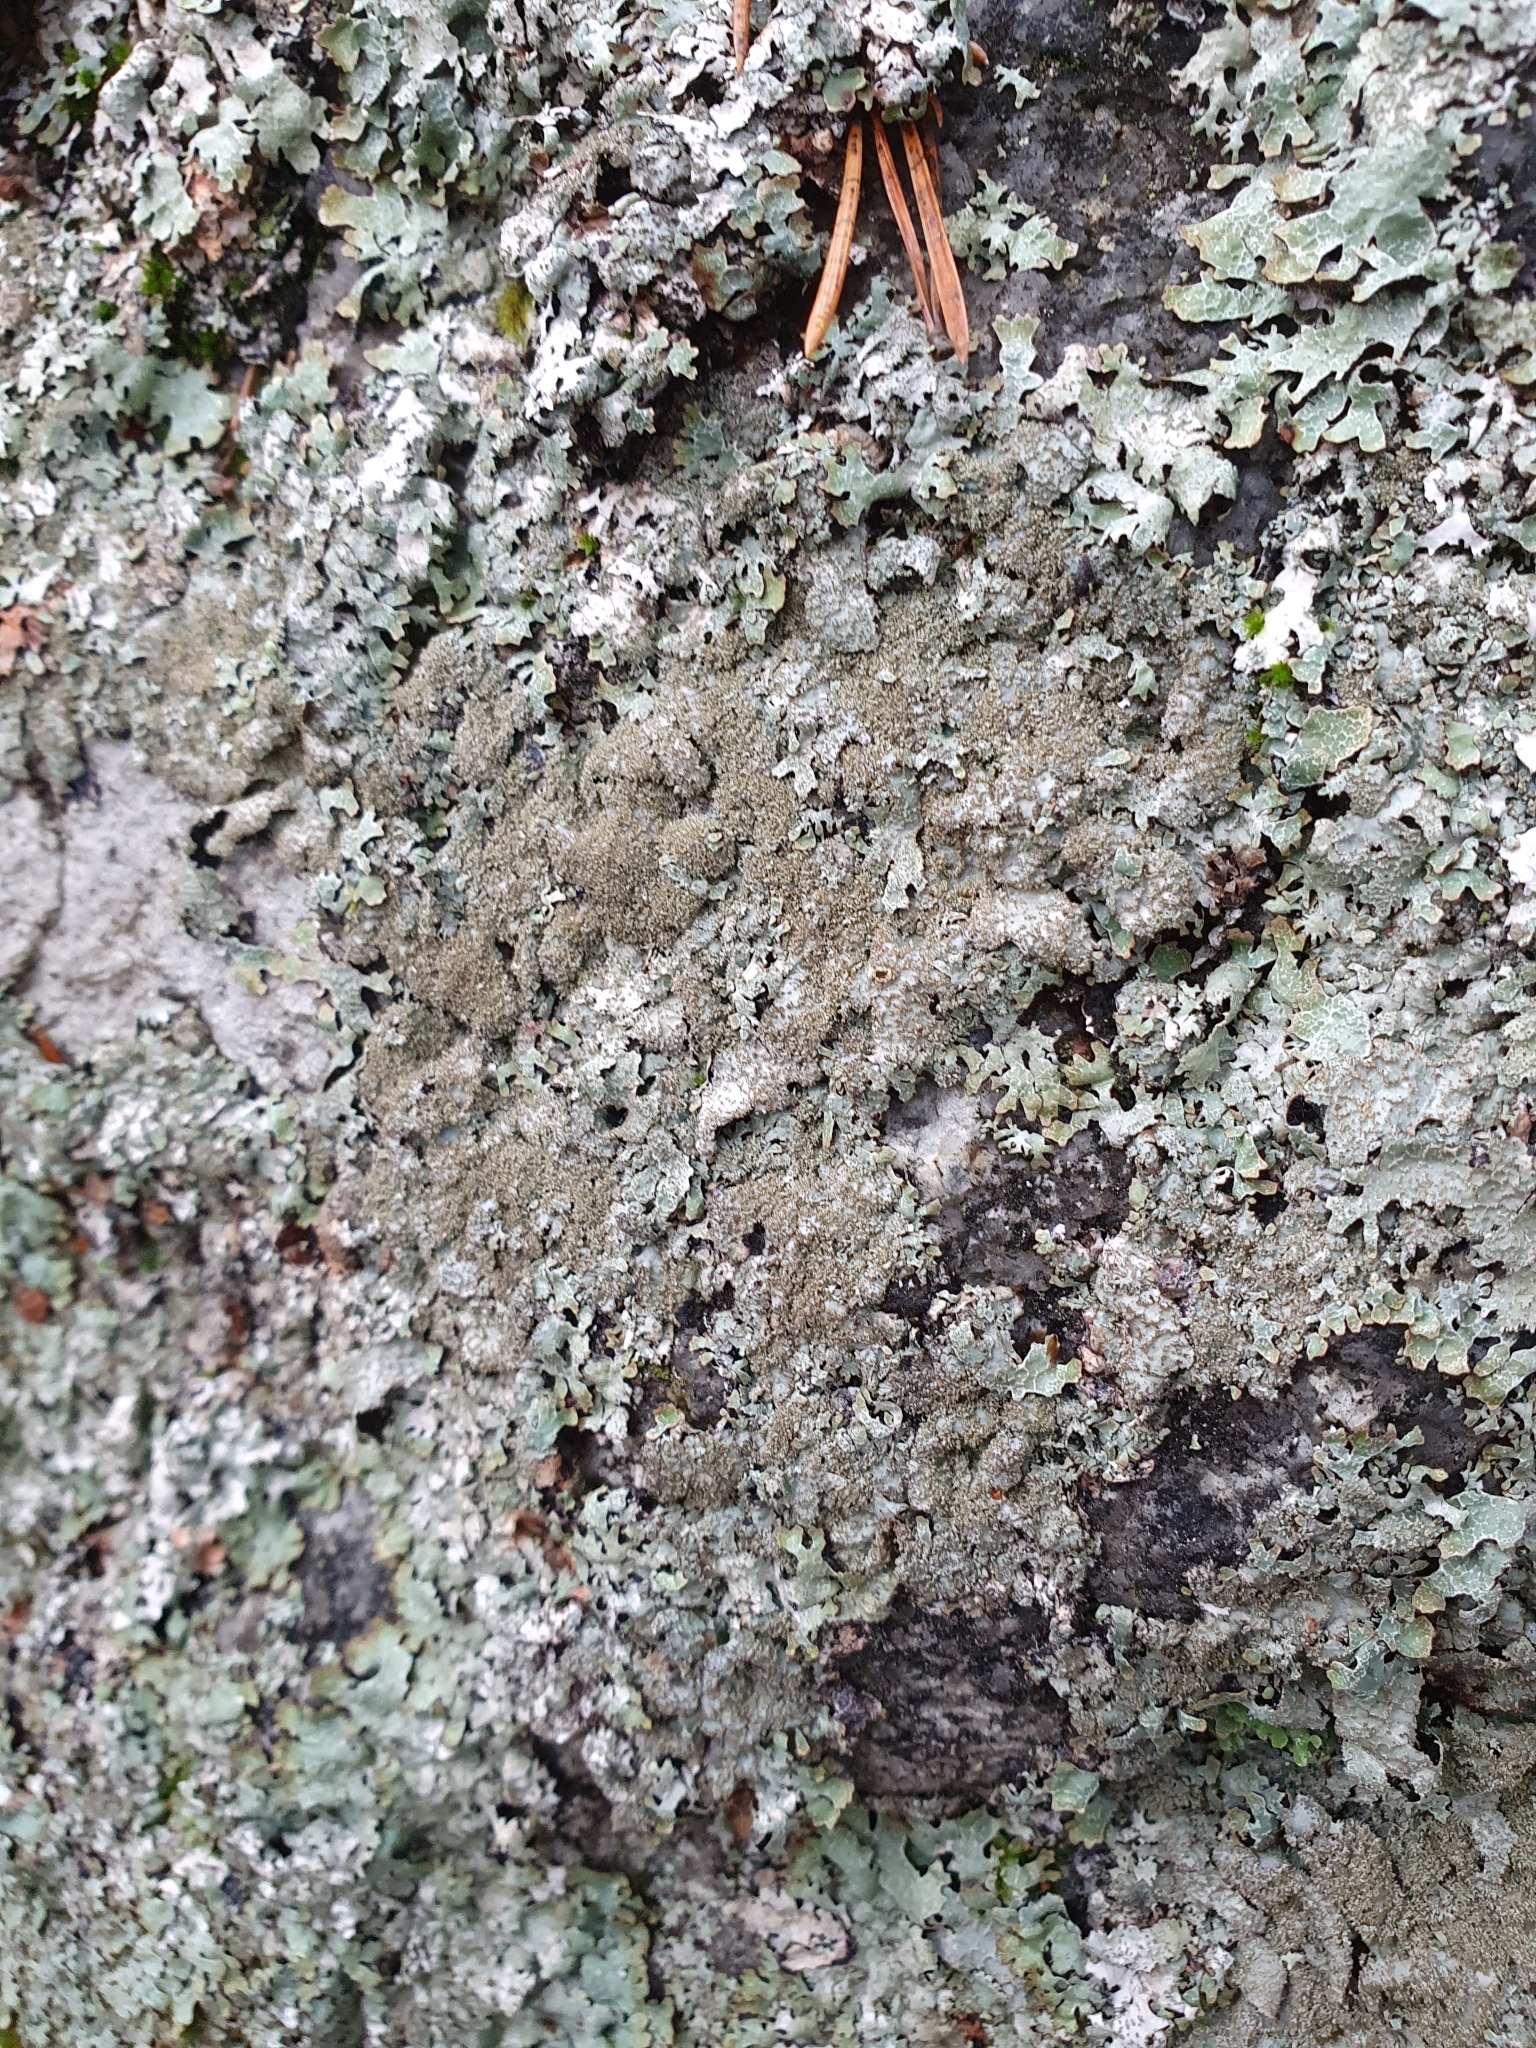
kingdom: Fungi
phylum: Ascomycota
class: Lecanoromycetes
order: Lecanorales
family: Parmeliaceae
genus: Parmelia
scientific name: Parmelia saxatilis
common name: Salted shield lichen
